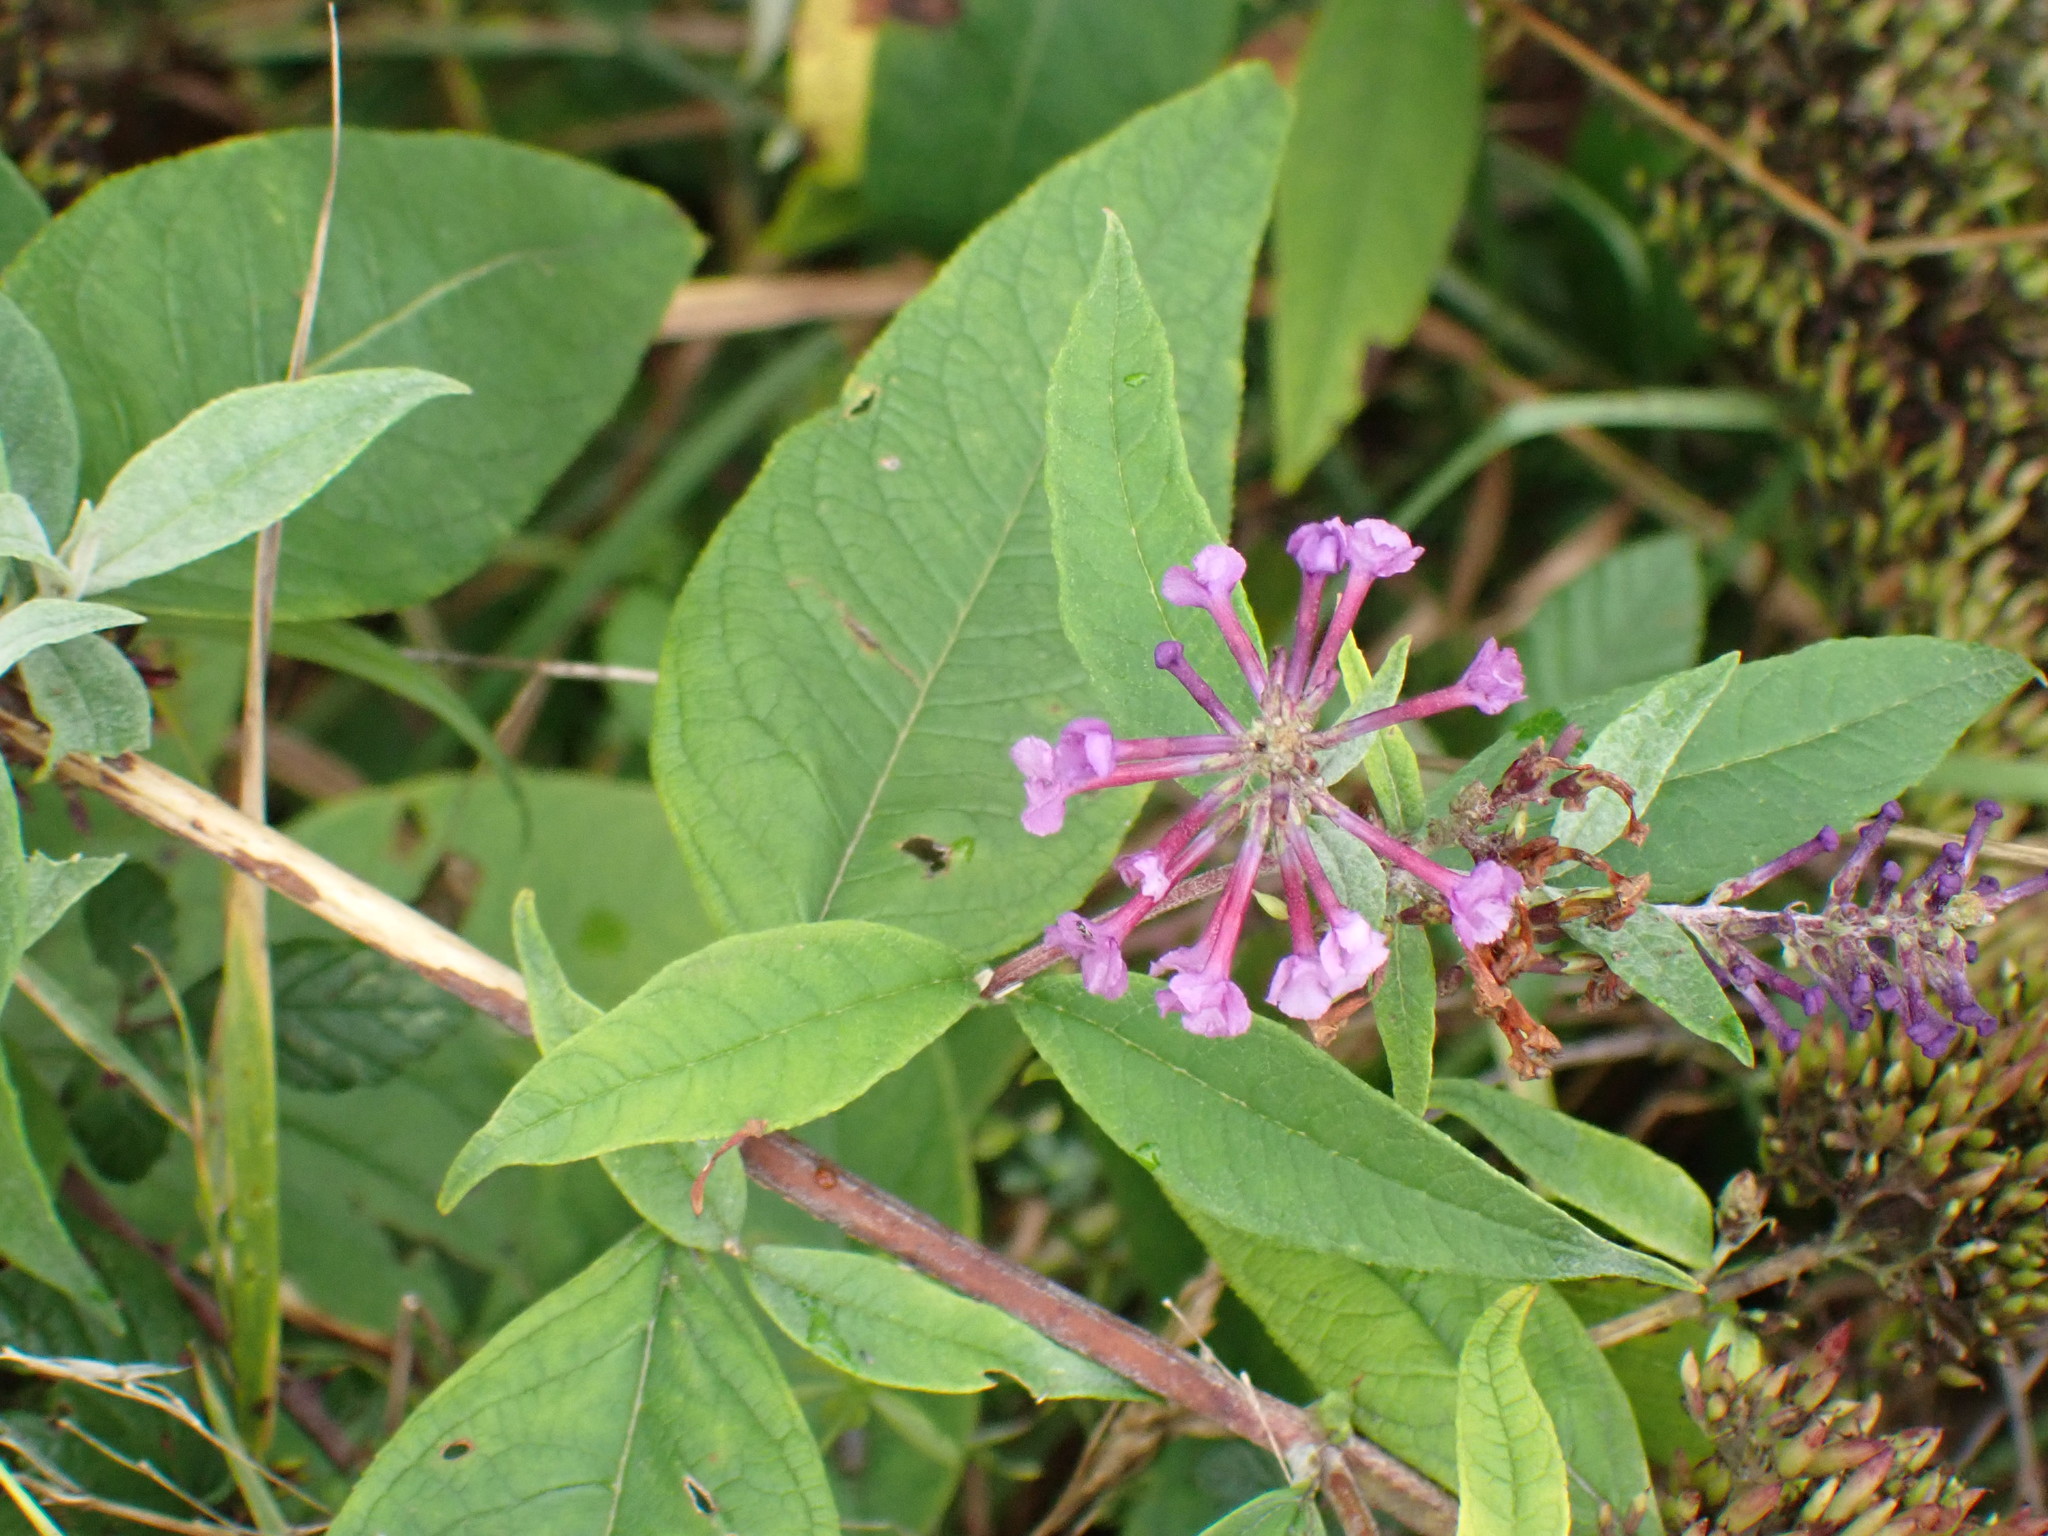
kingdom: Plantae
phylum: Tracheophyta
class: Magnoliopsida
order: Lamiales
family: Scrophulariaceae
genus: Buddleja
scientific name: Buddleja davidii
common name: Butterfly-bush
